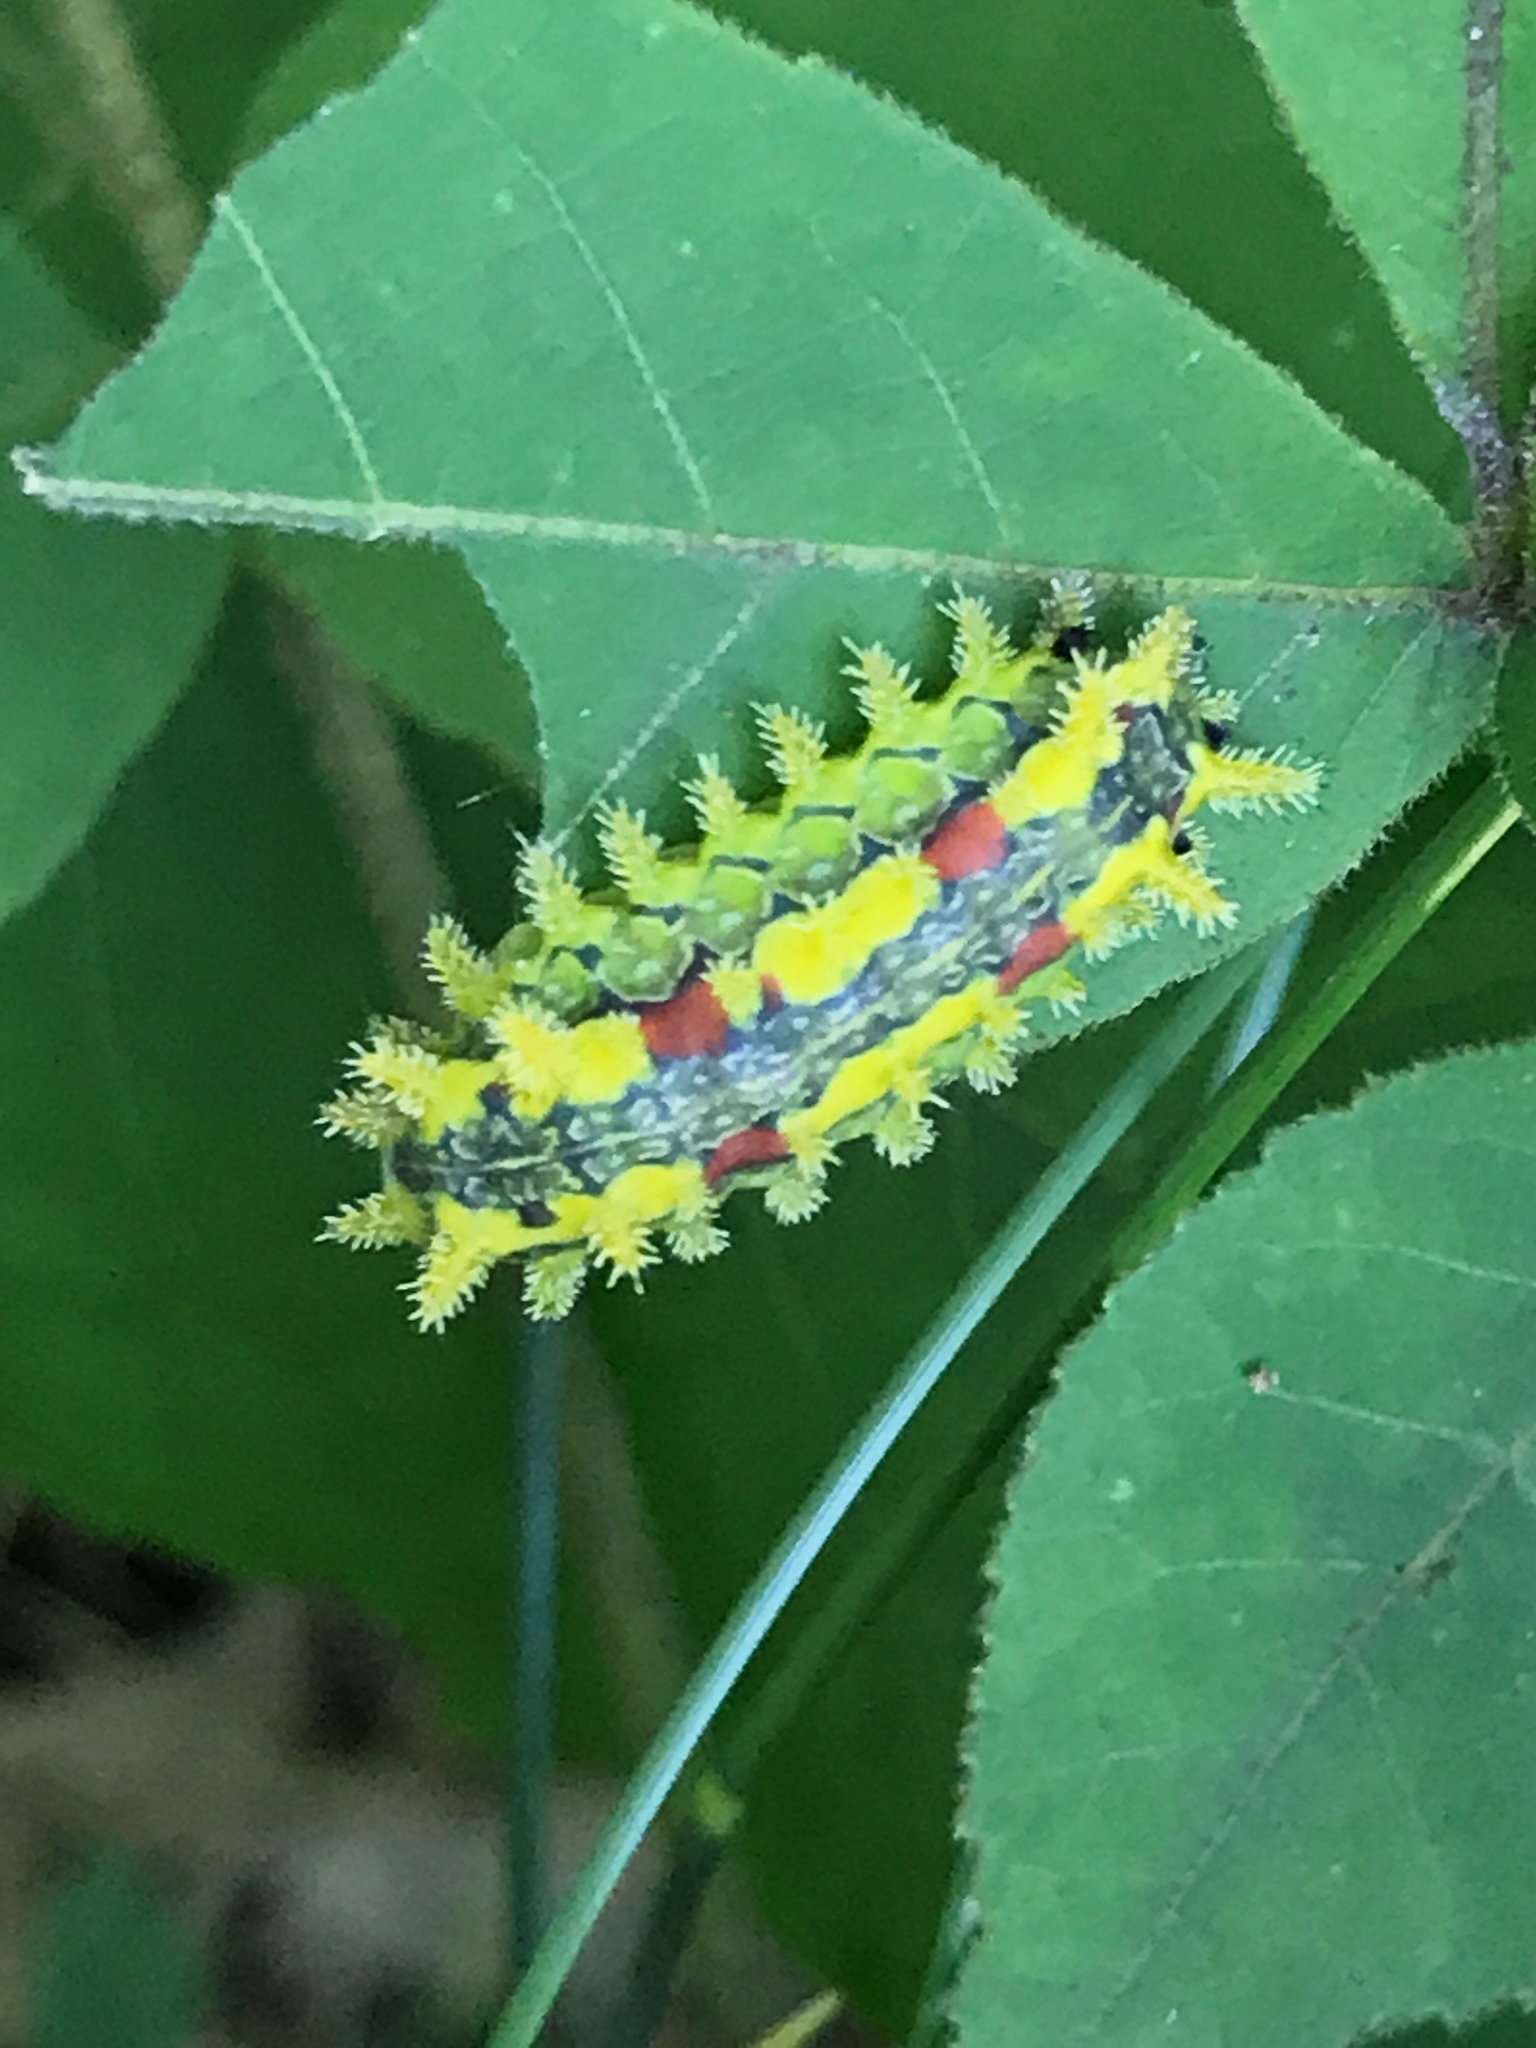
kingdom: Animalia
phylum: Arthropoda
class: Insecta
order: Lepidoptera
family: Limacodidae
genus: Euclea
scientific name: Euclea delphinii
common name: Spiny oak-slug moth
